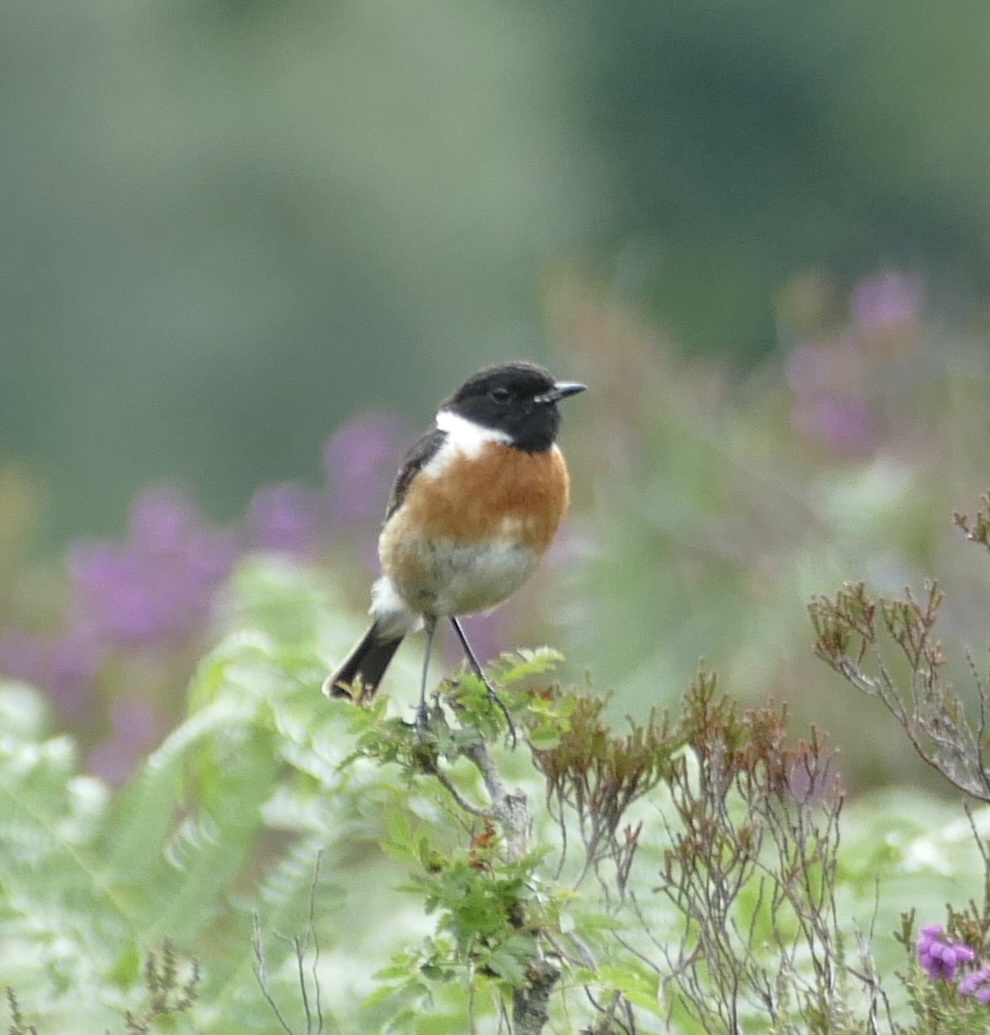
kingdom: Animalia
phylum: Chordata
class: Aves
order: Passeriformes
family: Muscicapidae
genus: Saxicola
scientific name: Saxicola rubicola
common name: European stonechat
